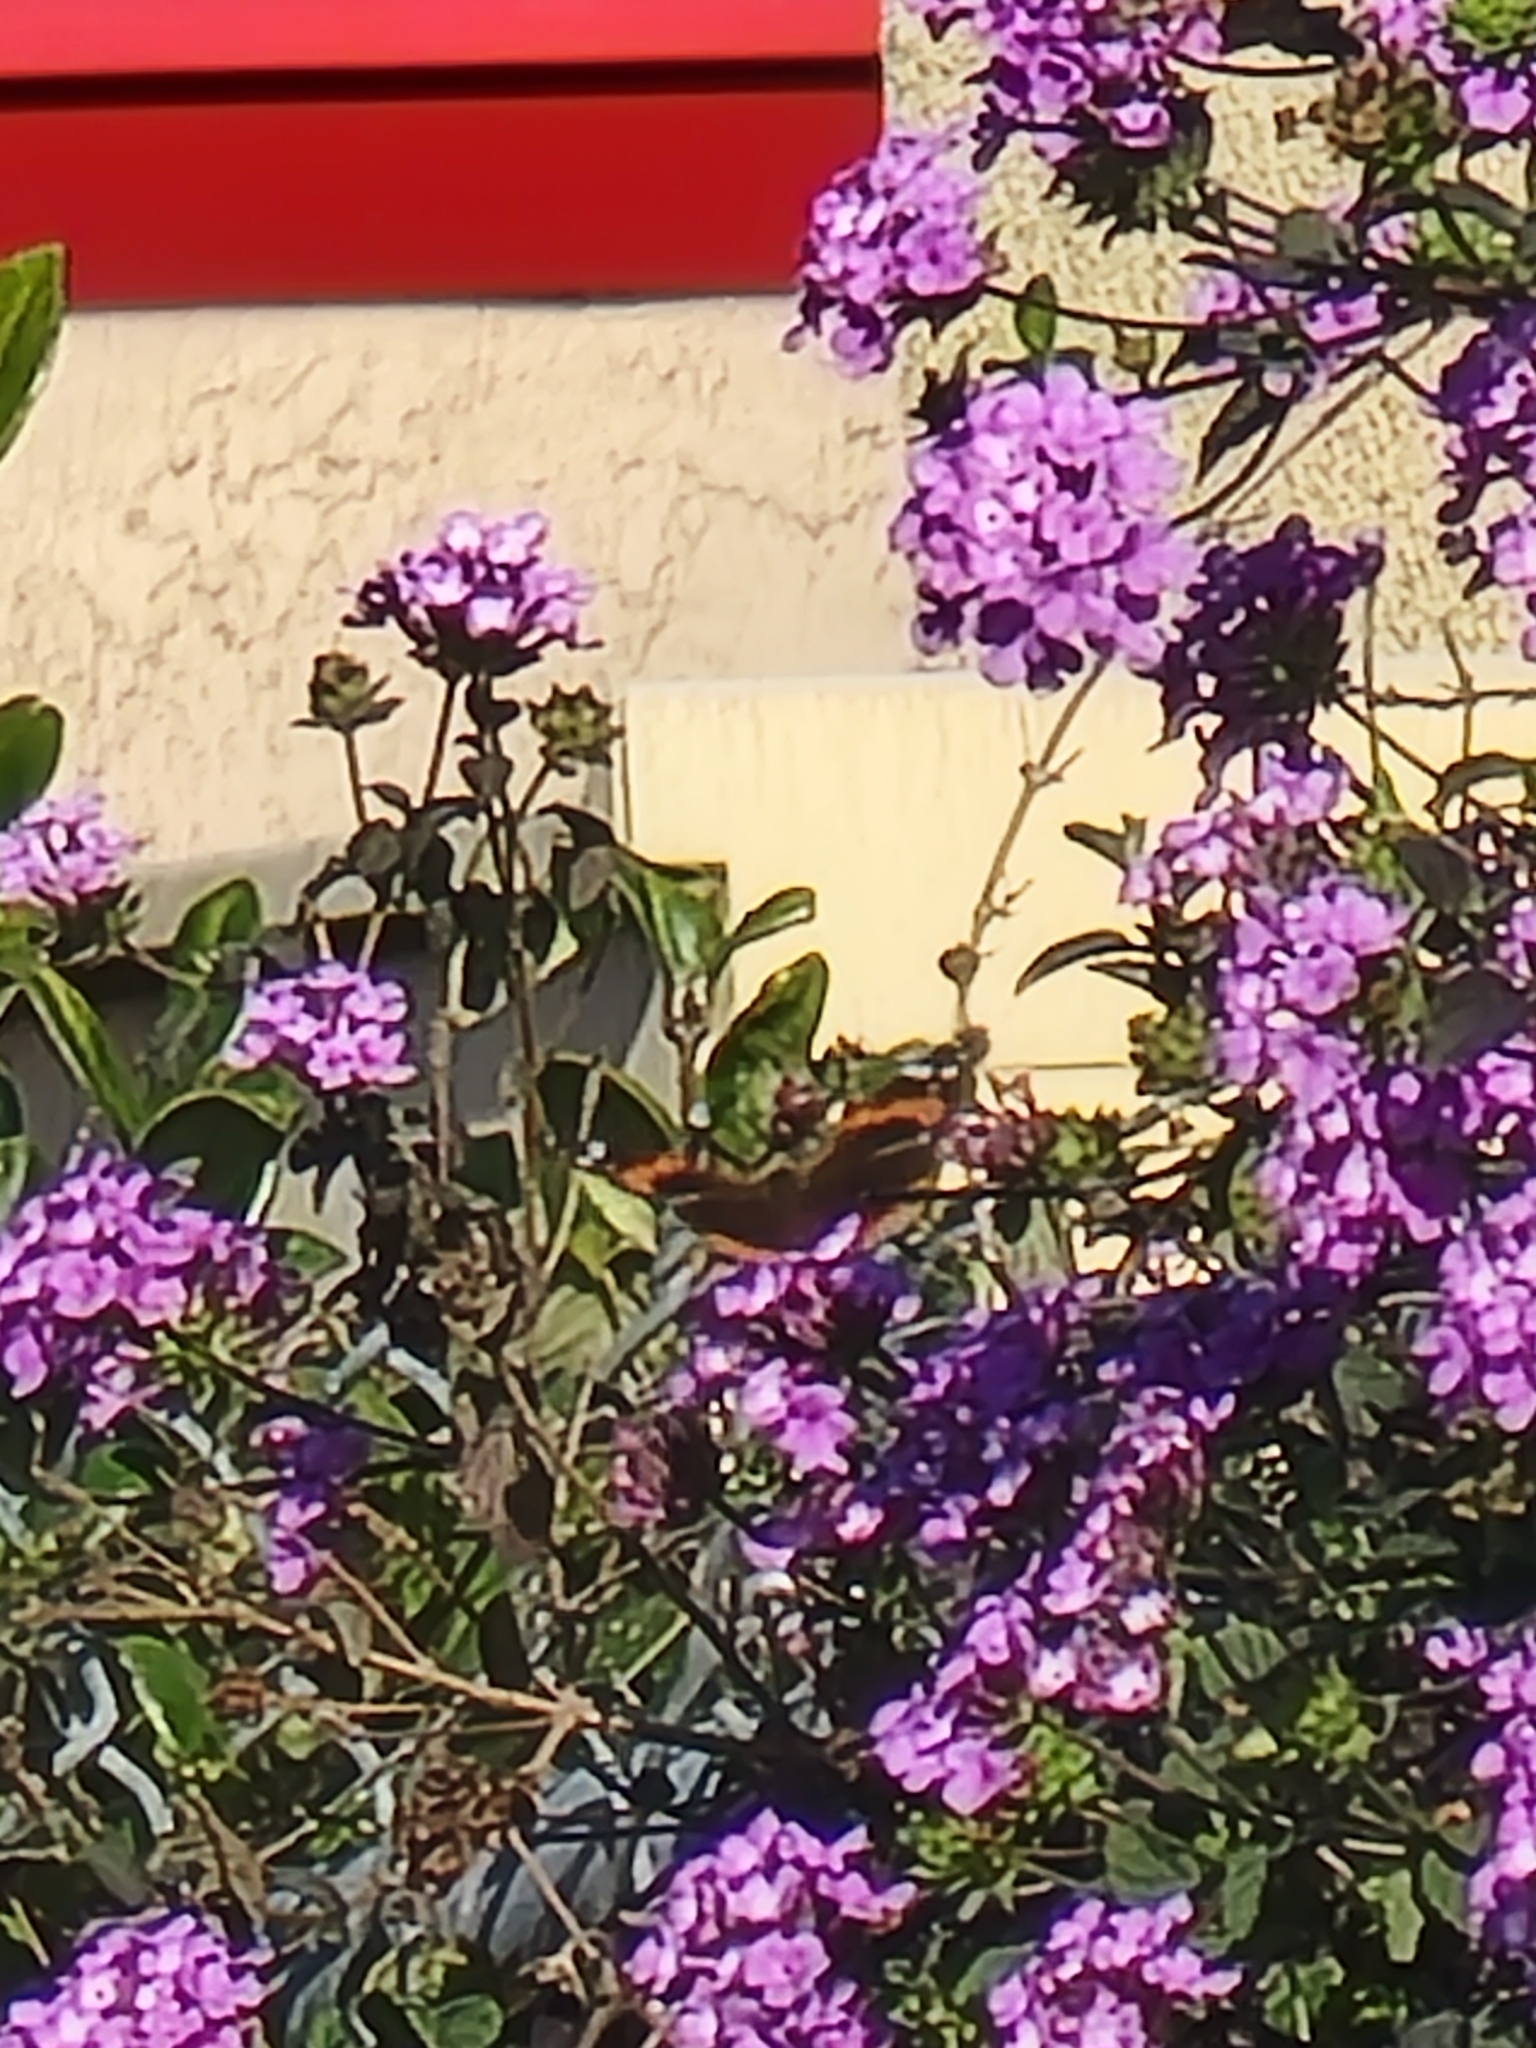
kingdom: Animalia
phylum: Arthropoda
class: Insecta
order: Lepidoptera
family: Nymphalidae
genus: Vanessa
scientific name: Vanessa atalanta
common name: Red admiral
